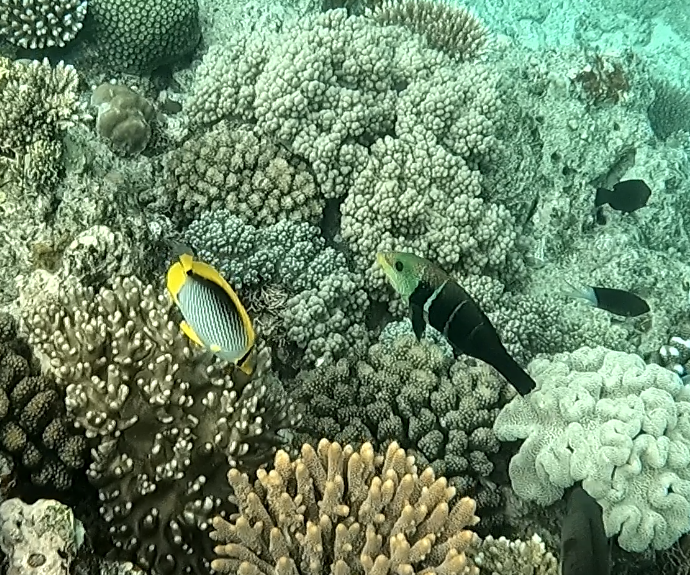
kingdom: Animalia
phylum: Chordata
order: Perciformes
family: Labridae
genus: Hemigymnus
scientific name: Hemigymnus fasciatus
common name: Barred thicklip
